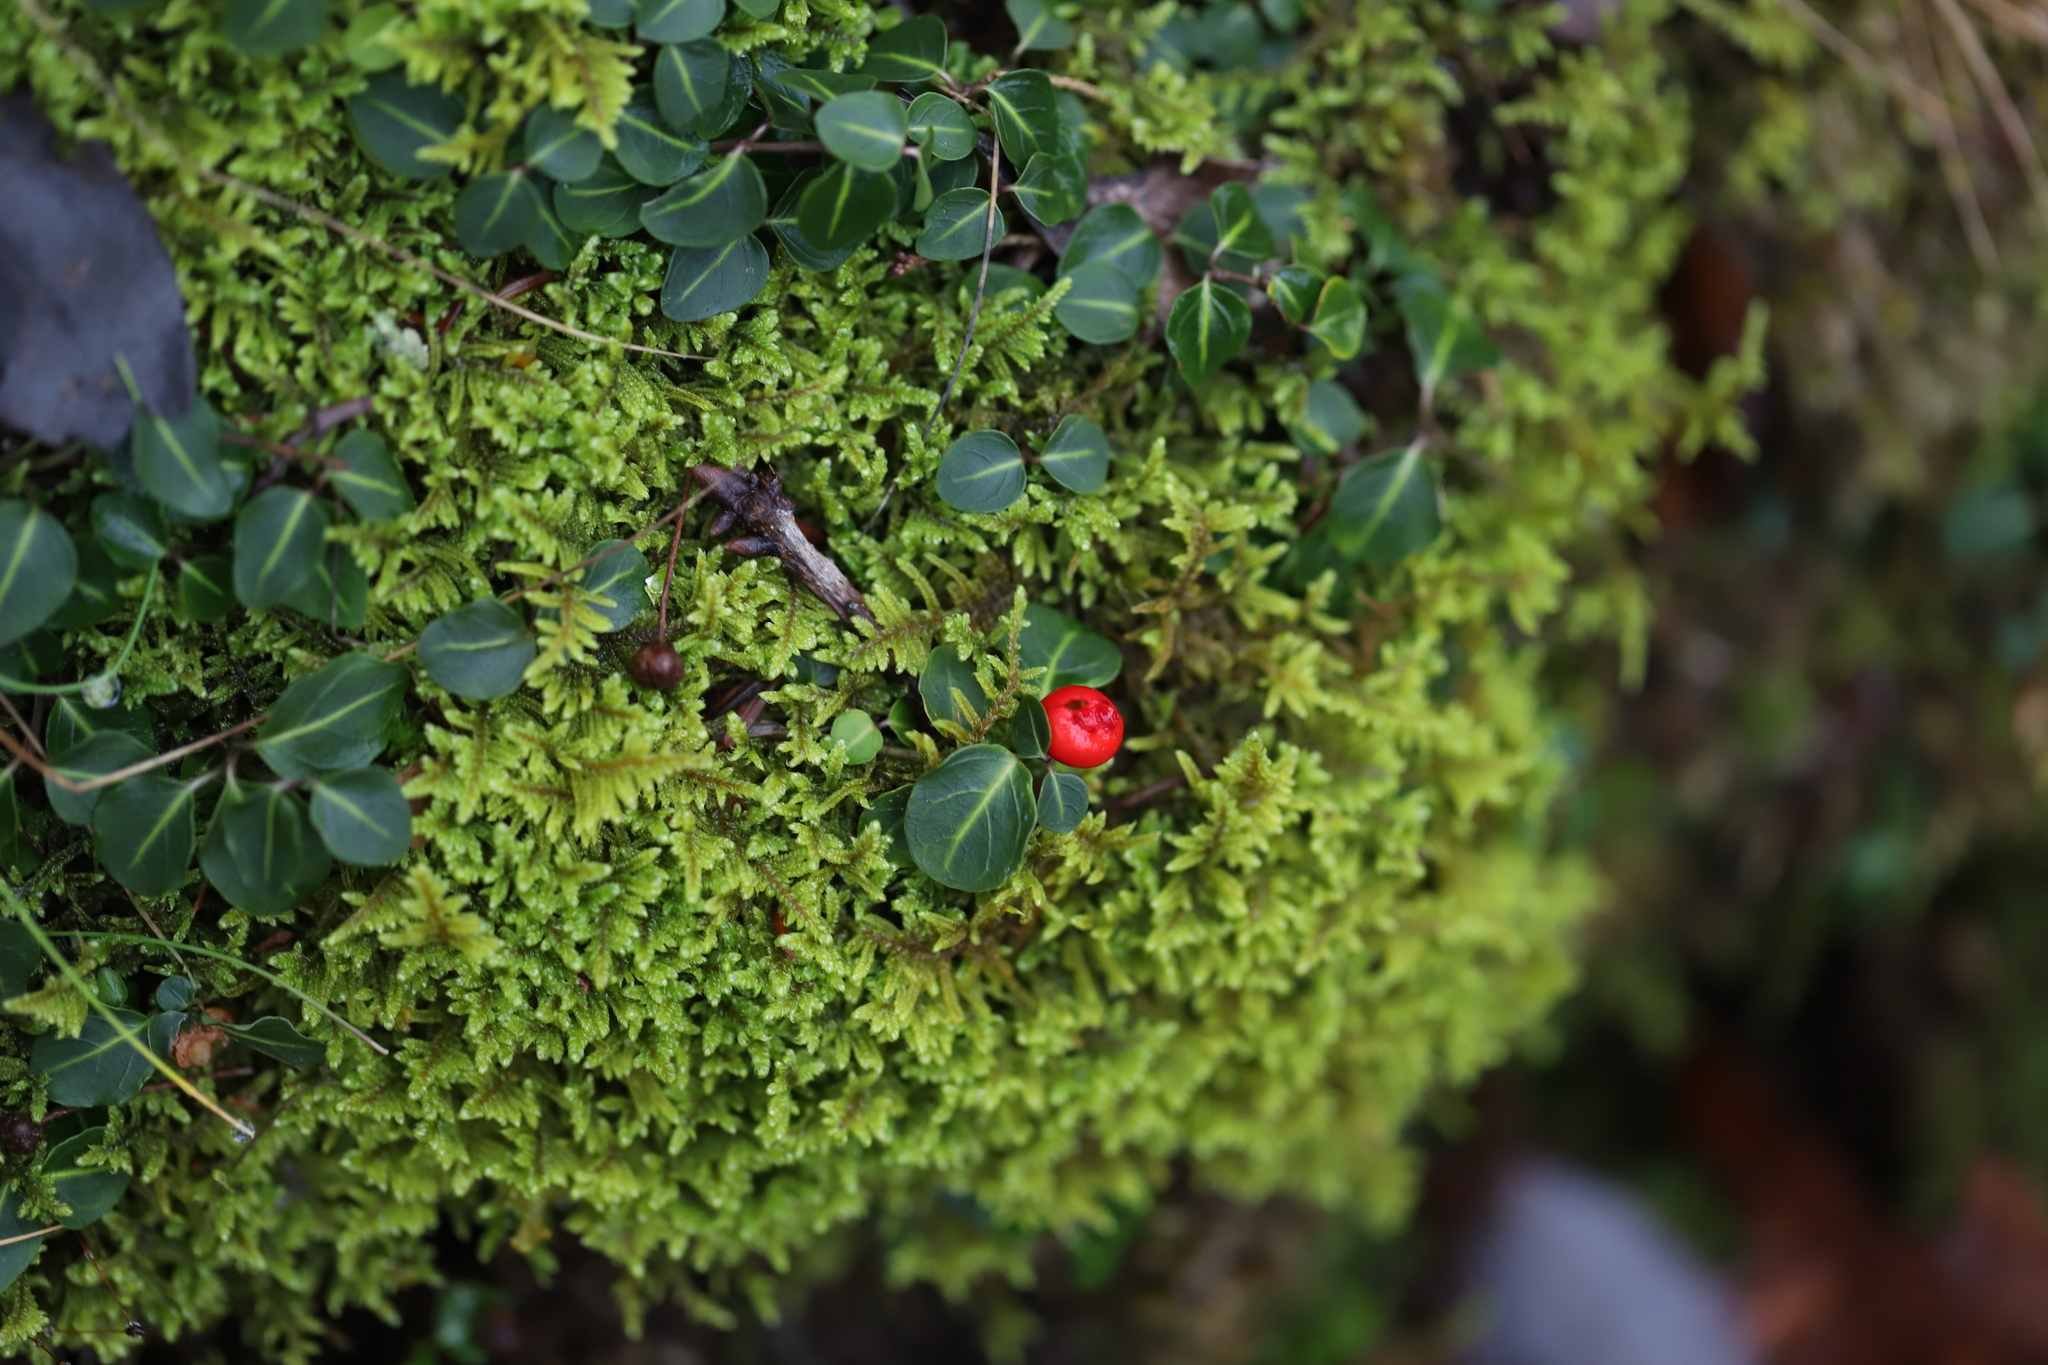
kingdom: Plantae
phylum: Tracheophyta
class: Magnoliopsida
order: Gentianales
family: Rubiaceae
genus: Mitchella
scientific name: Mitchella repens
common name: Partridge-berry
